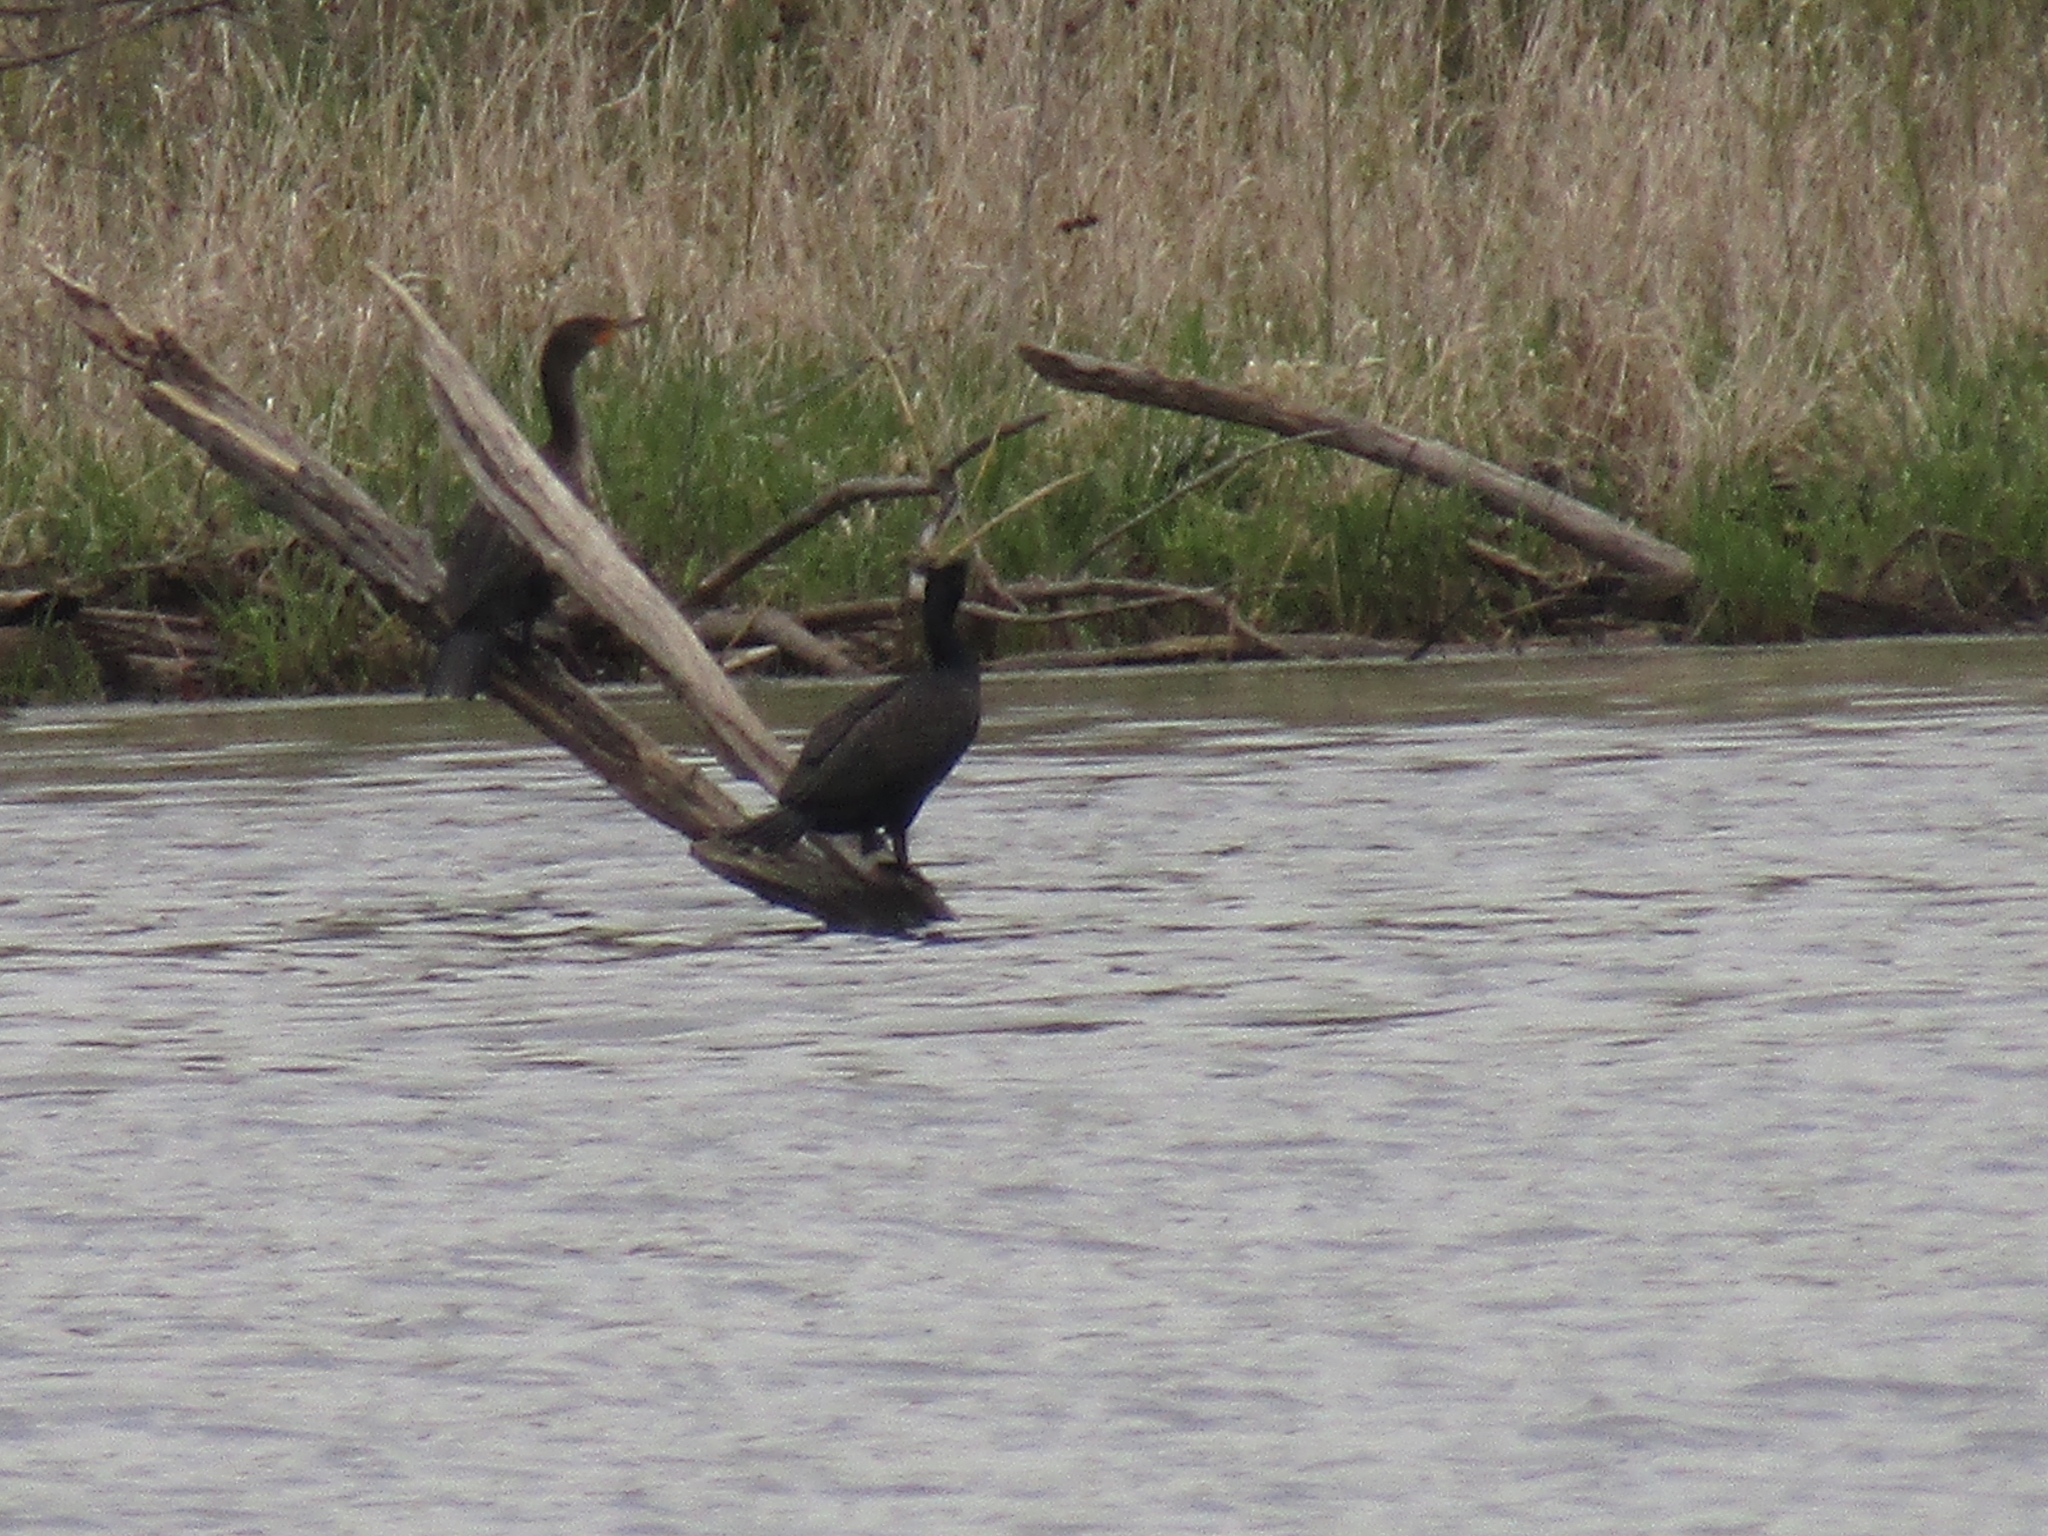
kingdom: Animalia
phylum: Chordata
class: Aves
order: Suliformes
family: Phalacrocoracidae
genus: Phalacrocorax
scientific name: Phalacrocorax auritus
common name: Double-crested cormorant
